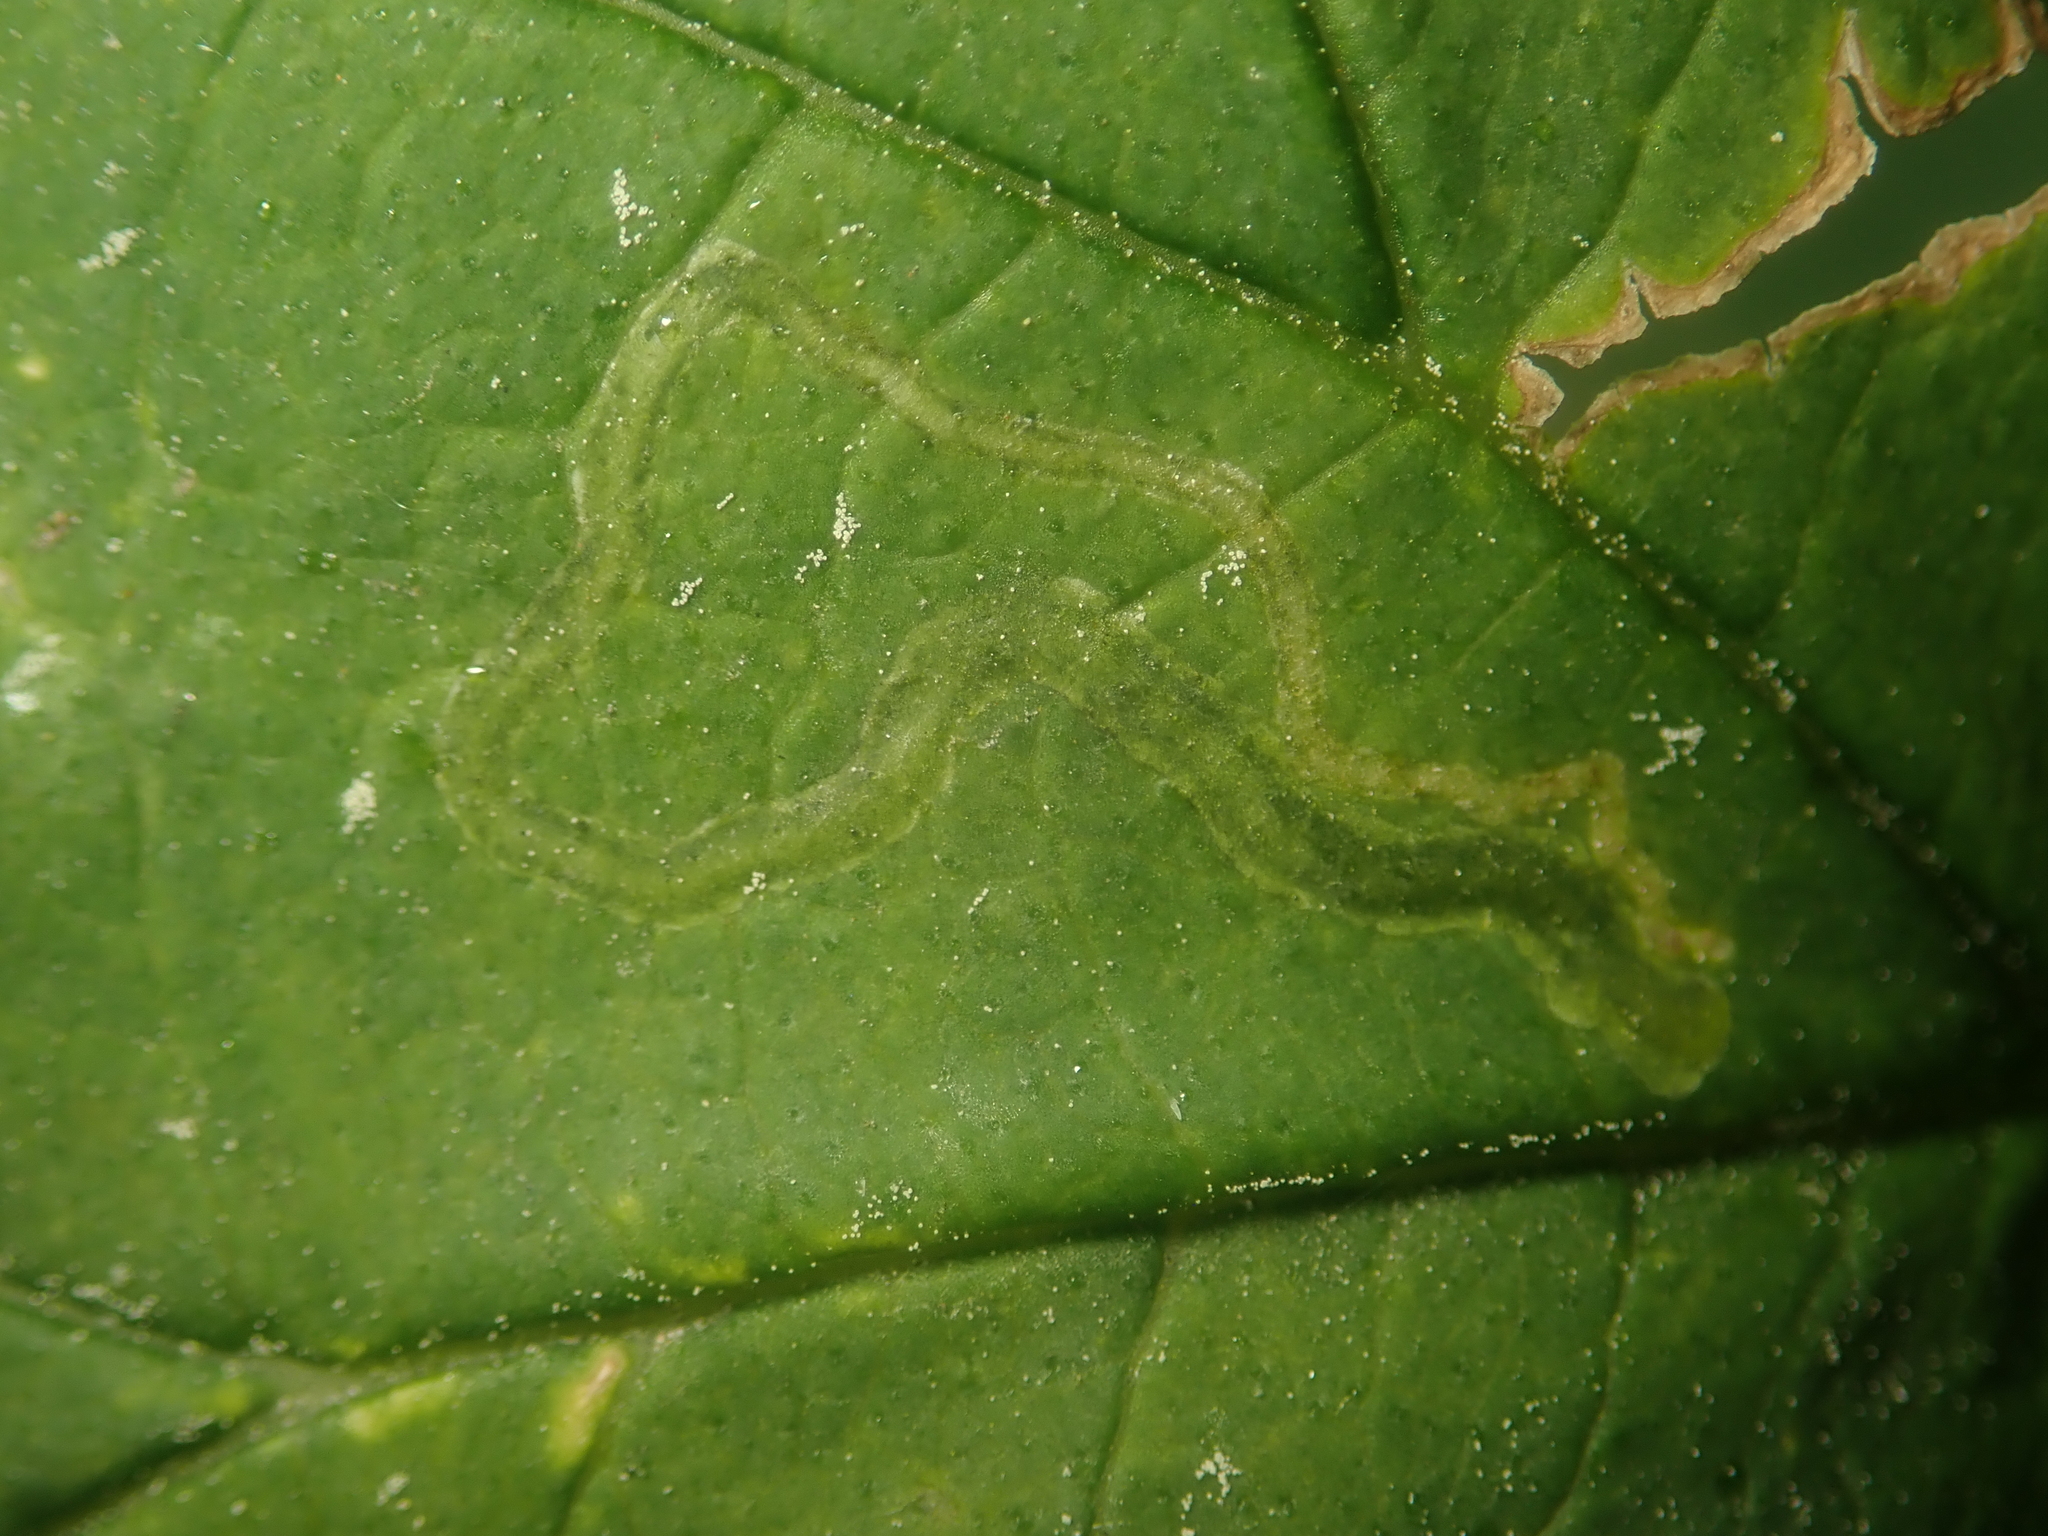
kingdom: Animalia
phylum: Arthropoda
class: Insecta
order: Diptera
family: Agromyzidae
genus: Agromyza
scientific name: Agromyza flaviceps
